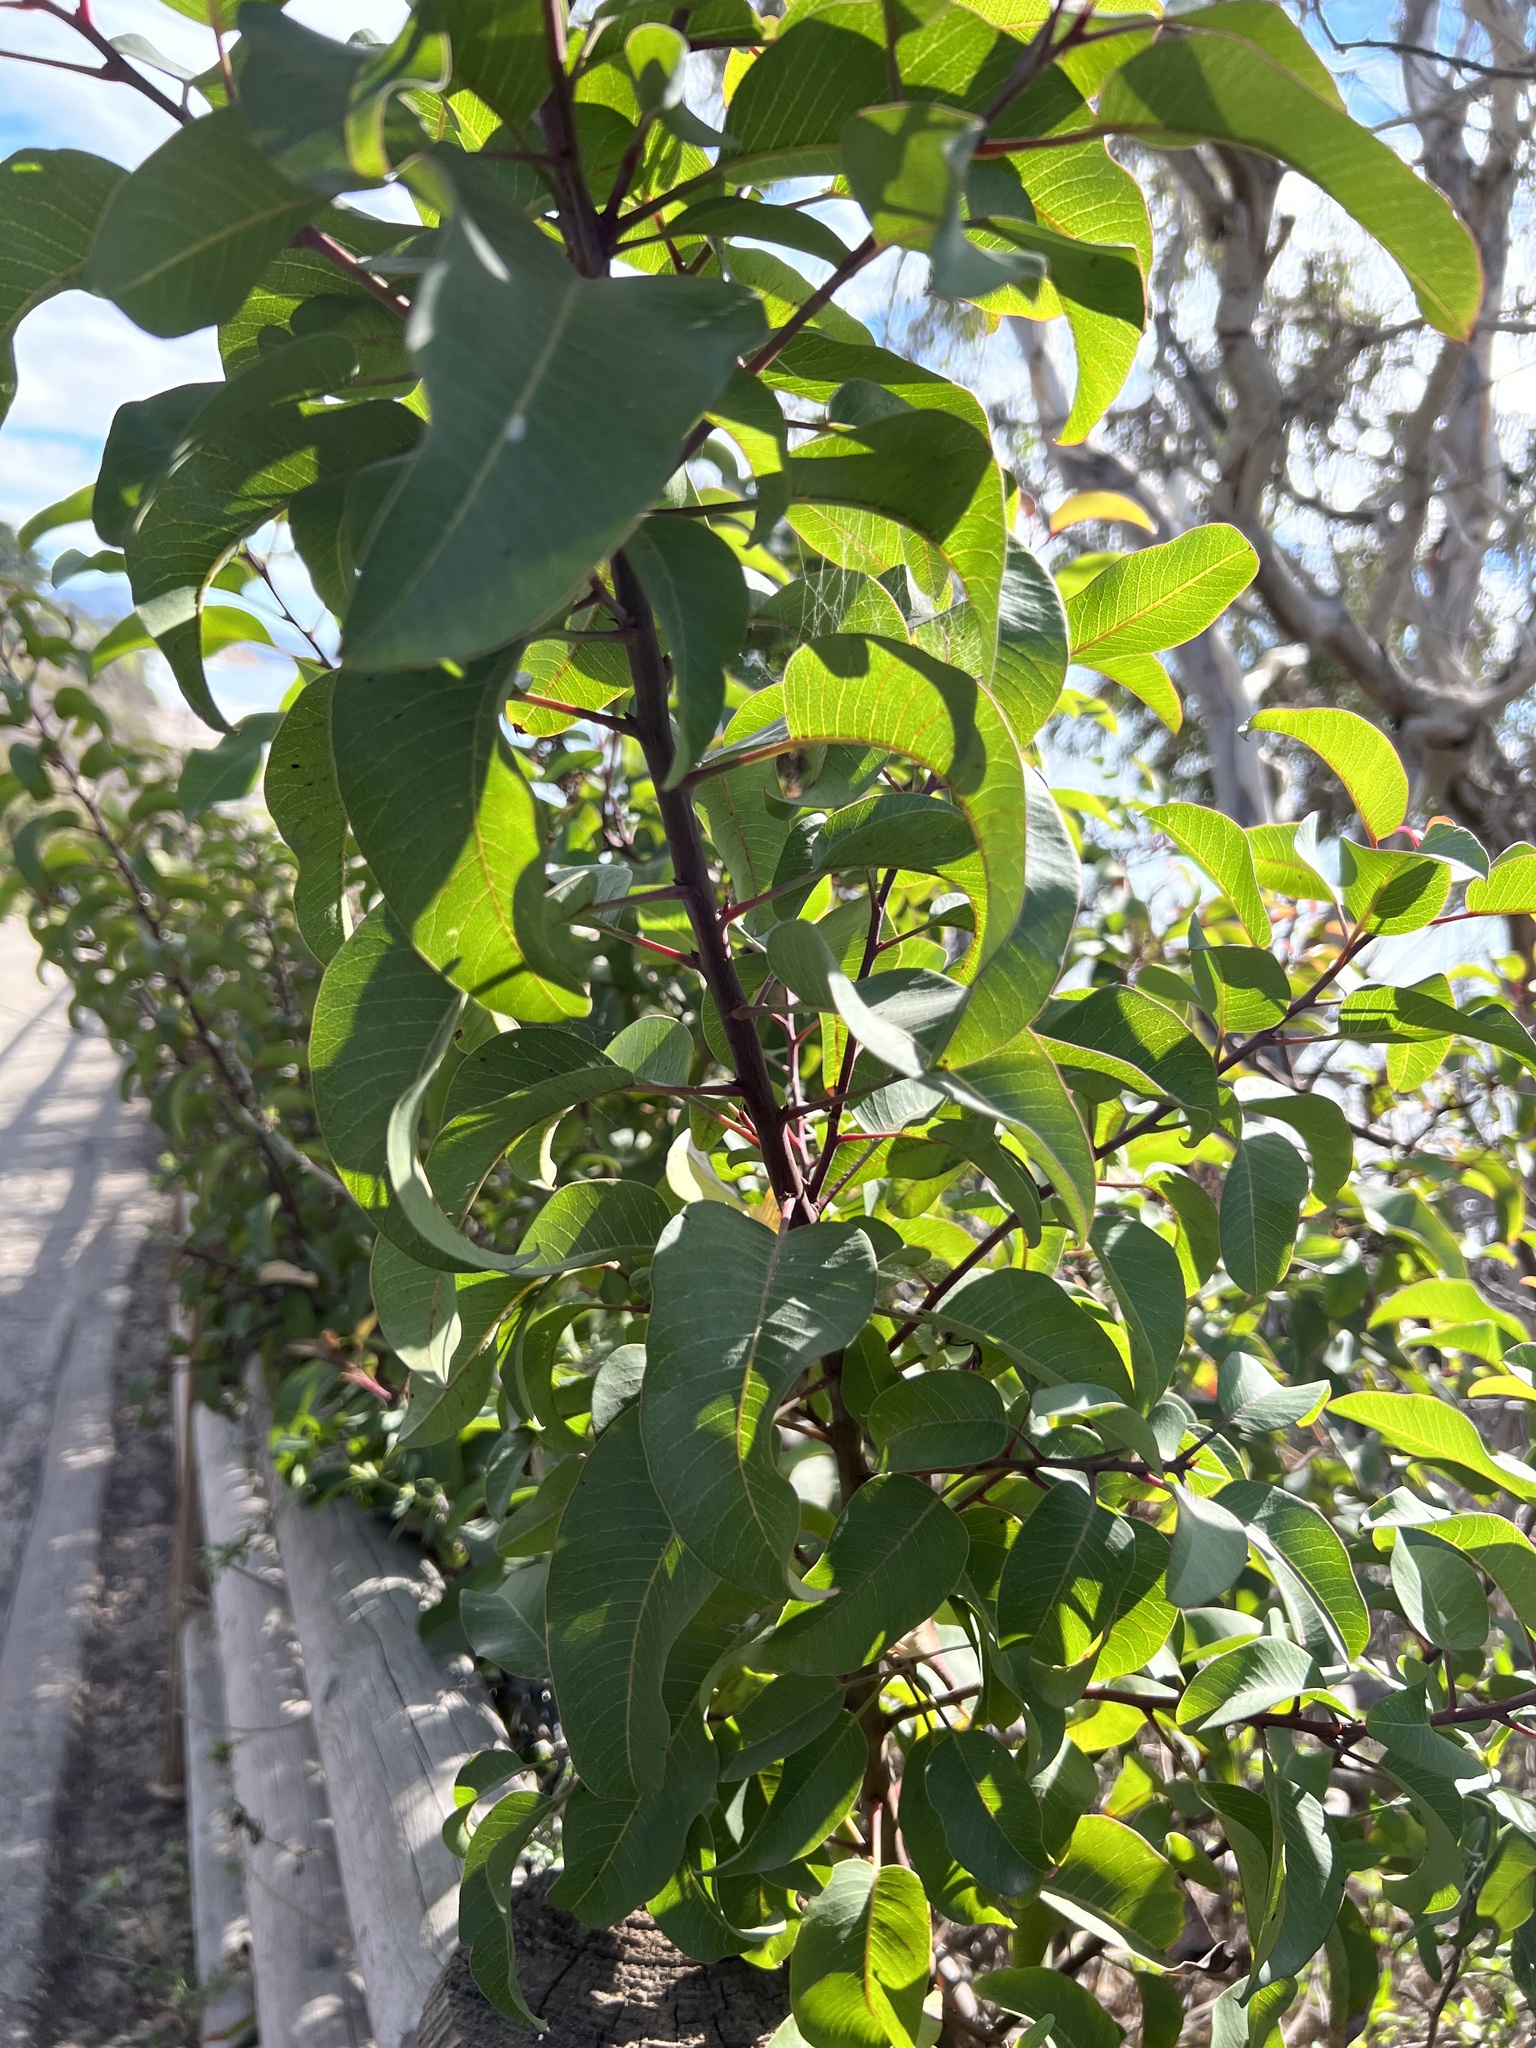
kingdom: Plantae
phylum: Tracheophyta
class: Magnoliopsida
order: Sapindales
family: Anacardiaceae
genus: Malosma
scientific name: Malosma laurina
